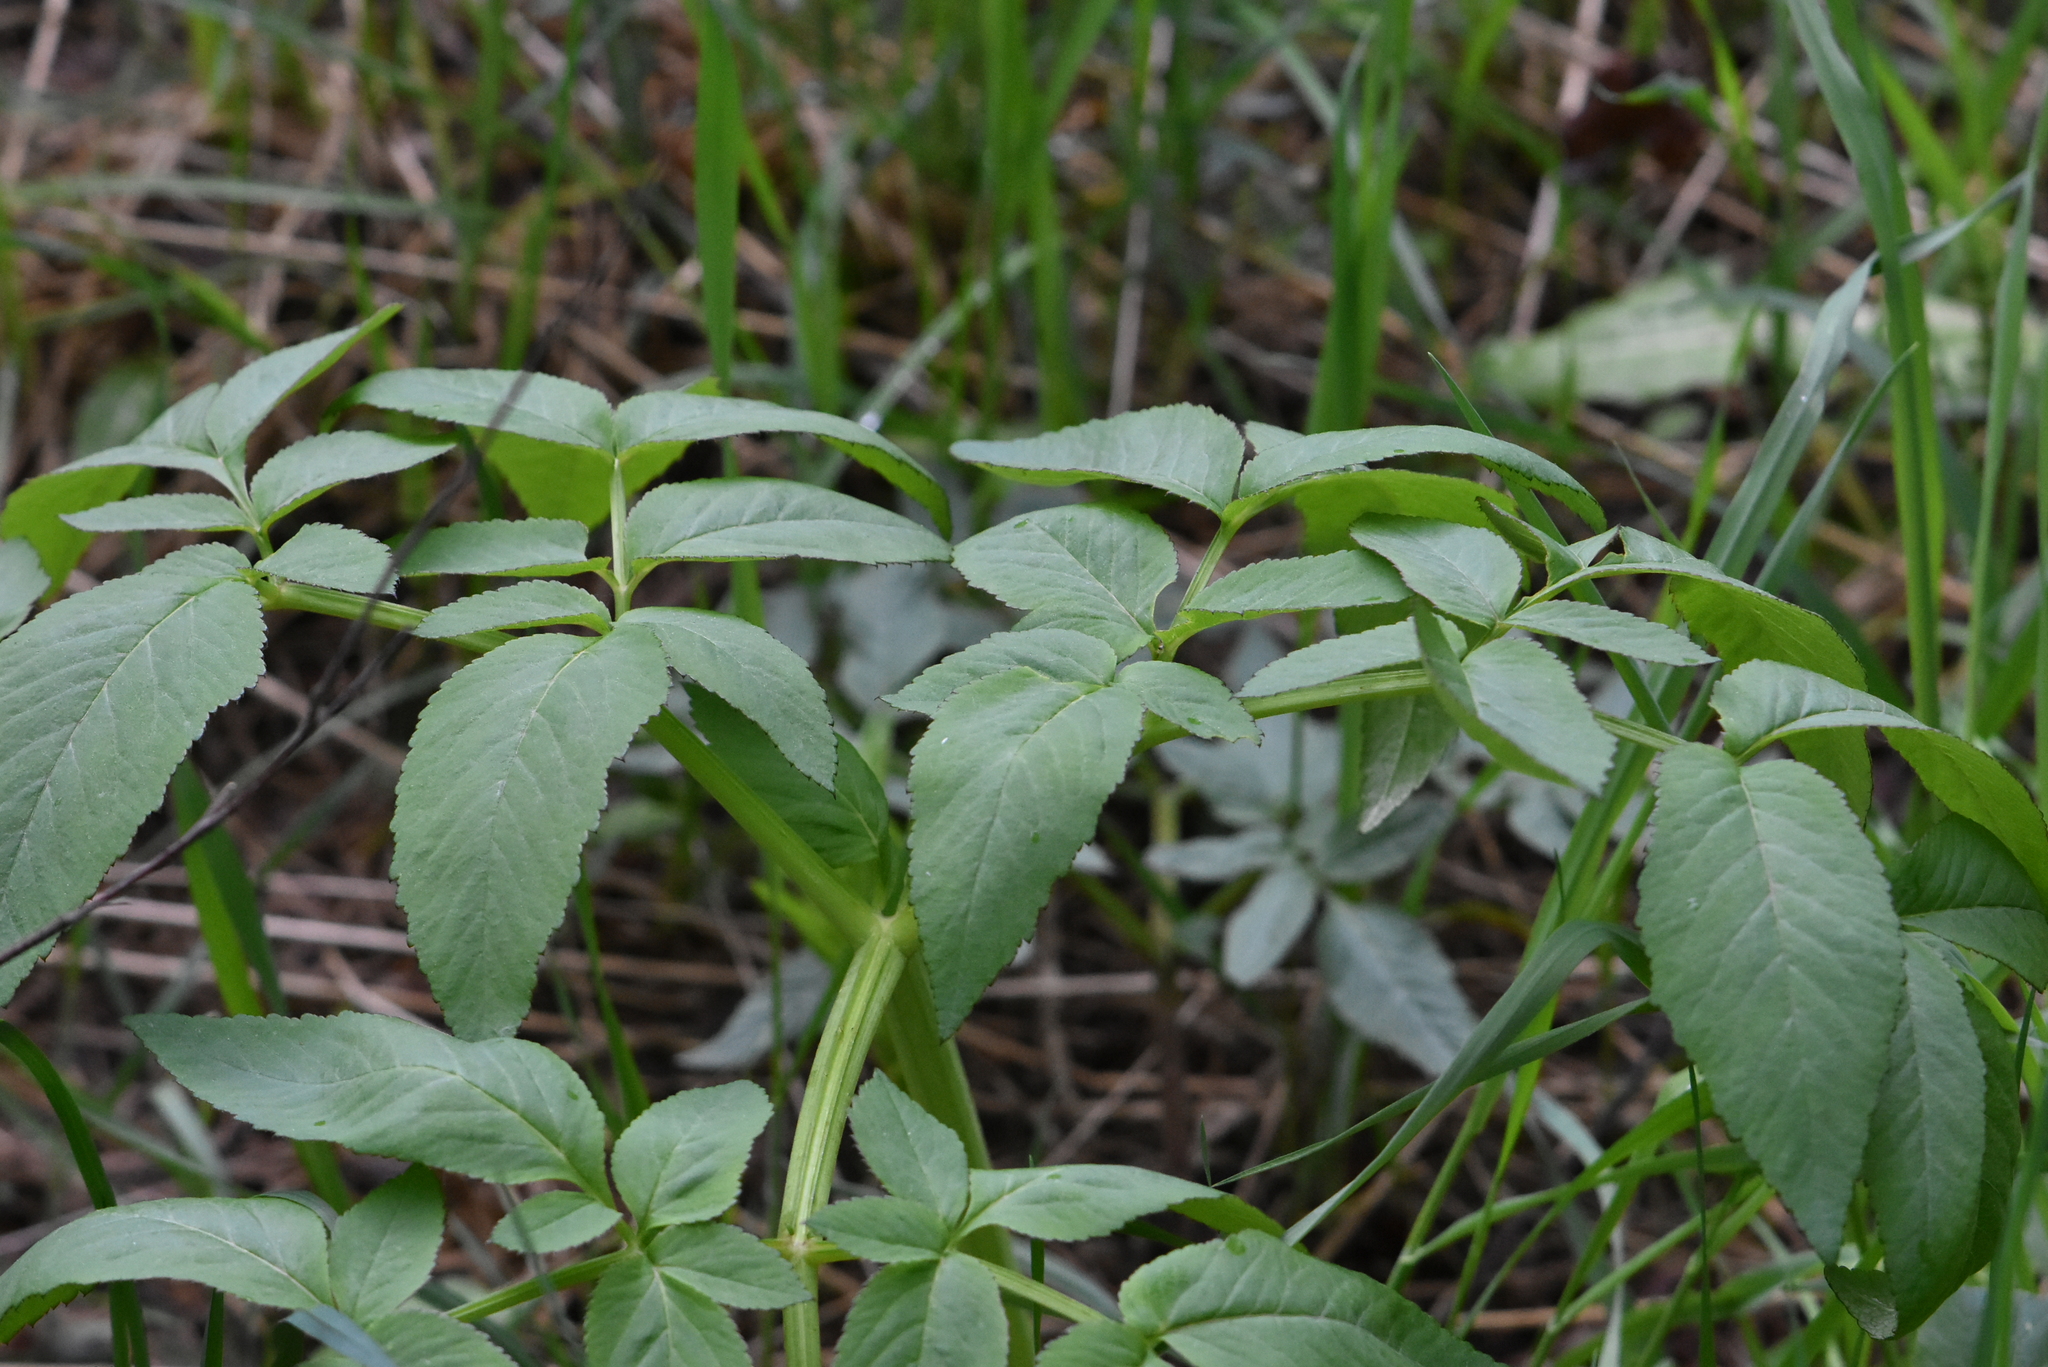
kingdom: Plantae
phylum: Tracheophyta
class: Magnoliopsida
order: Apiales
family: Apiaceae
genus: Angelica
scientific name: Angelica sylvestris
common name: Wild angelica
